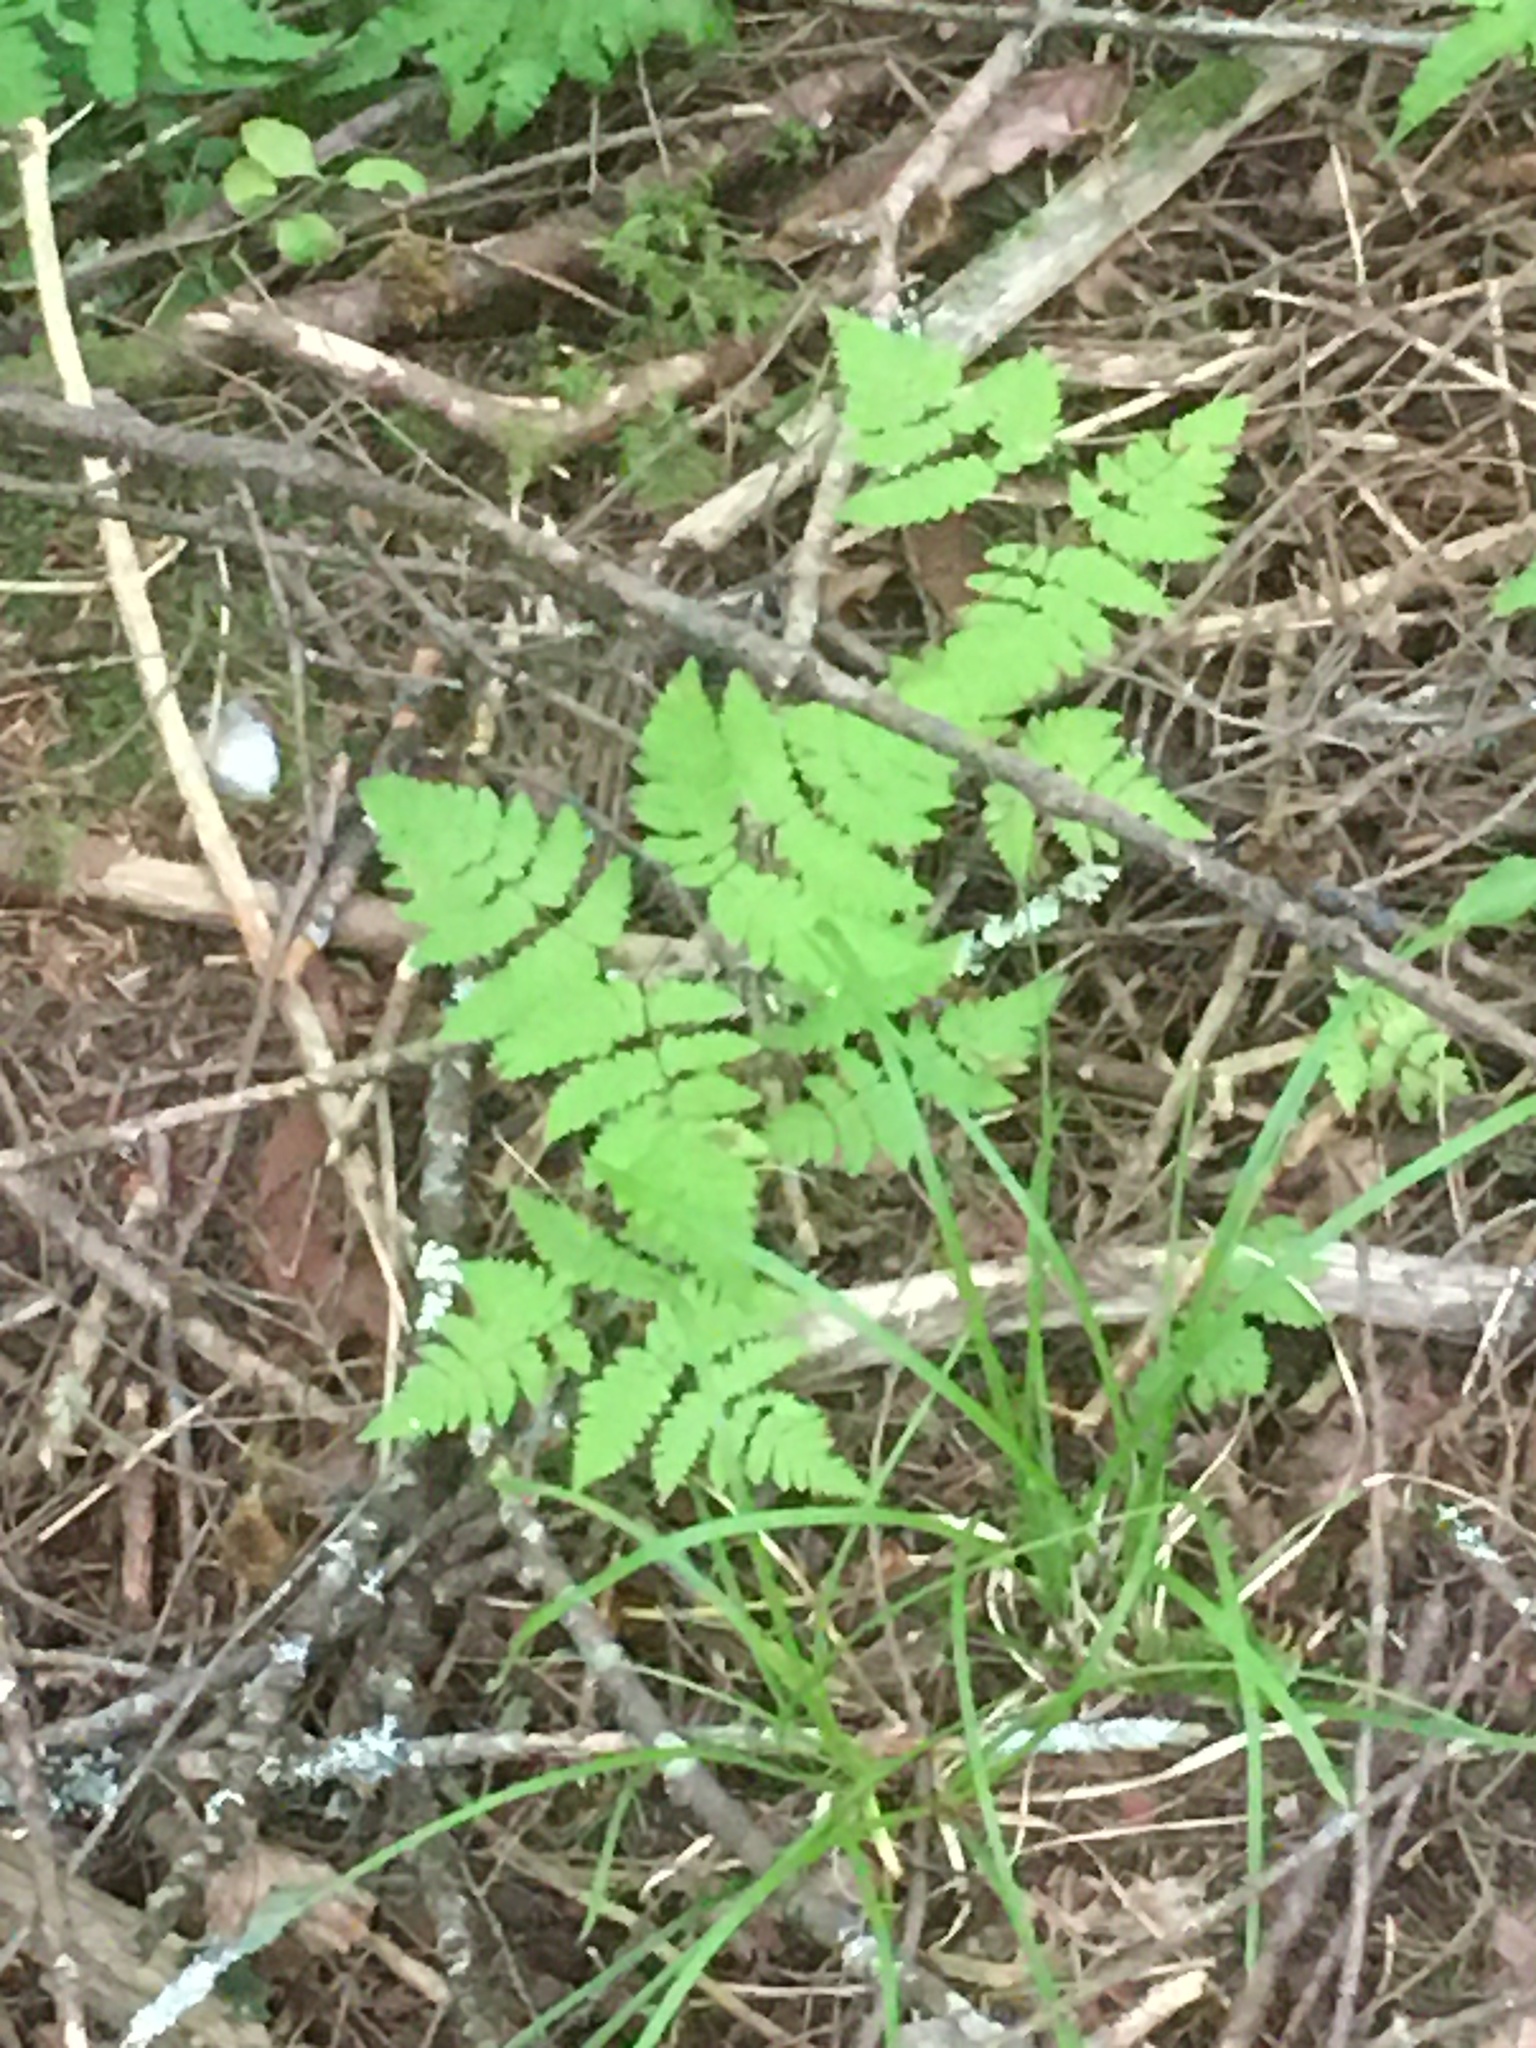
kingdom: Plantae
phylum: Tracheophyta
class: Polypodiopsida
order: Polypodiales
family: Cystopteridaceae
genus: Gymnocarpium
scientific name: Gymnocarpium dryopteris
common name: Oak fern
